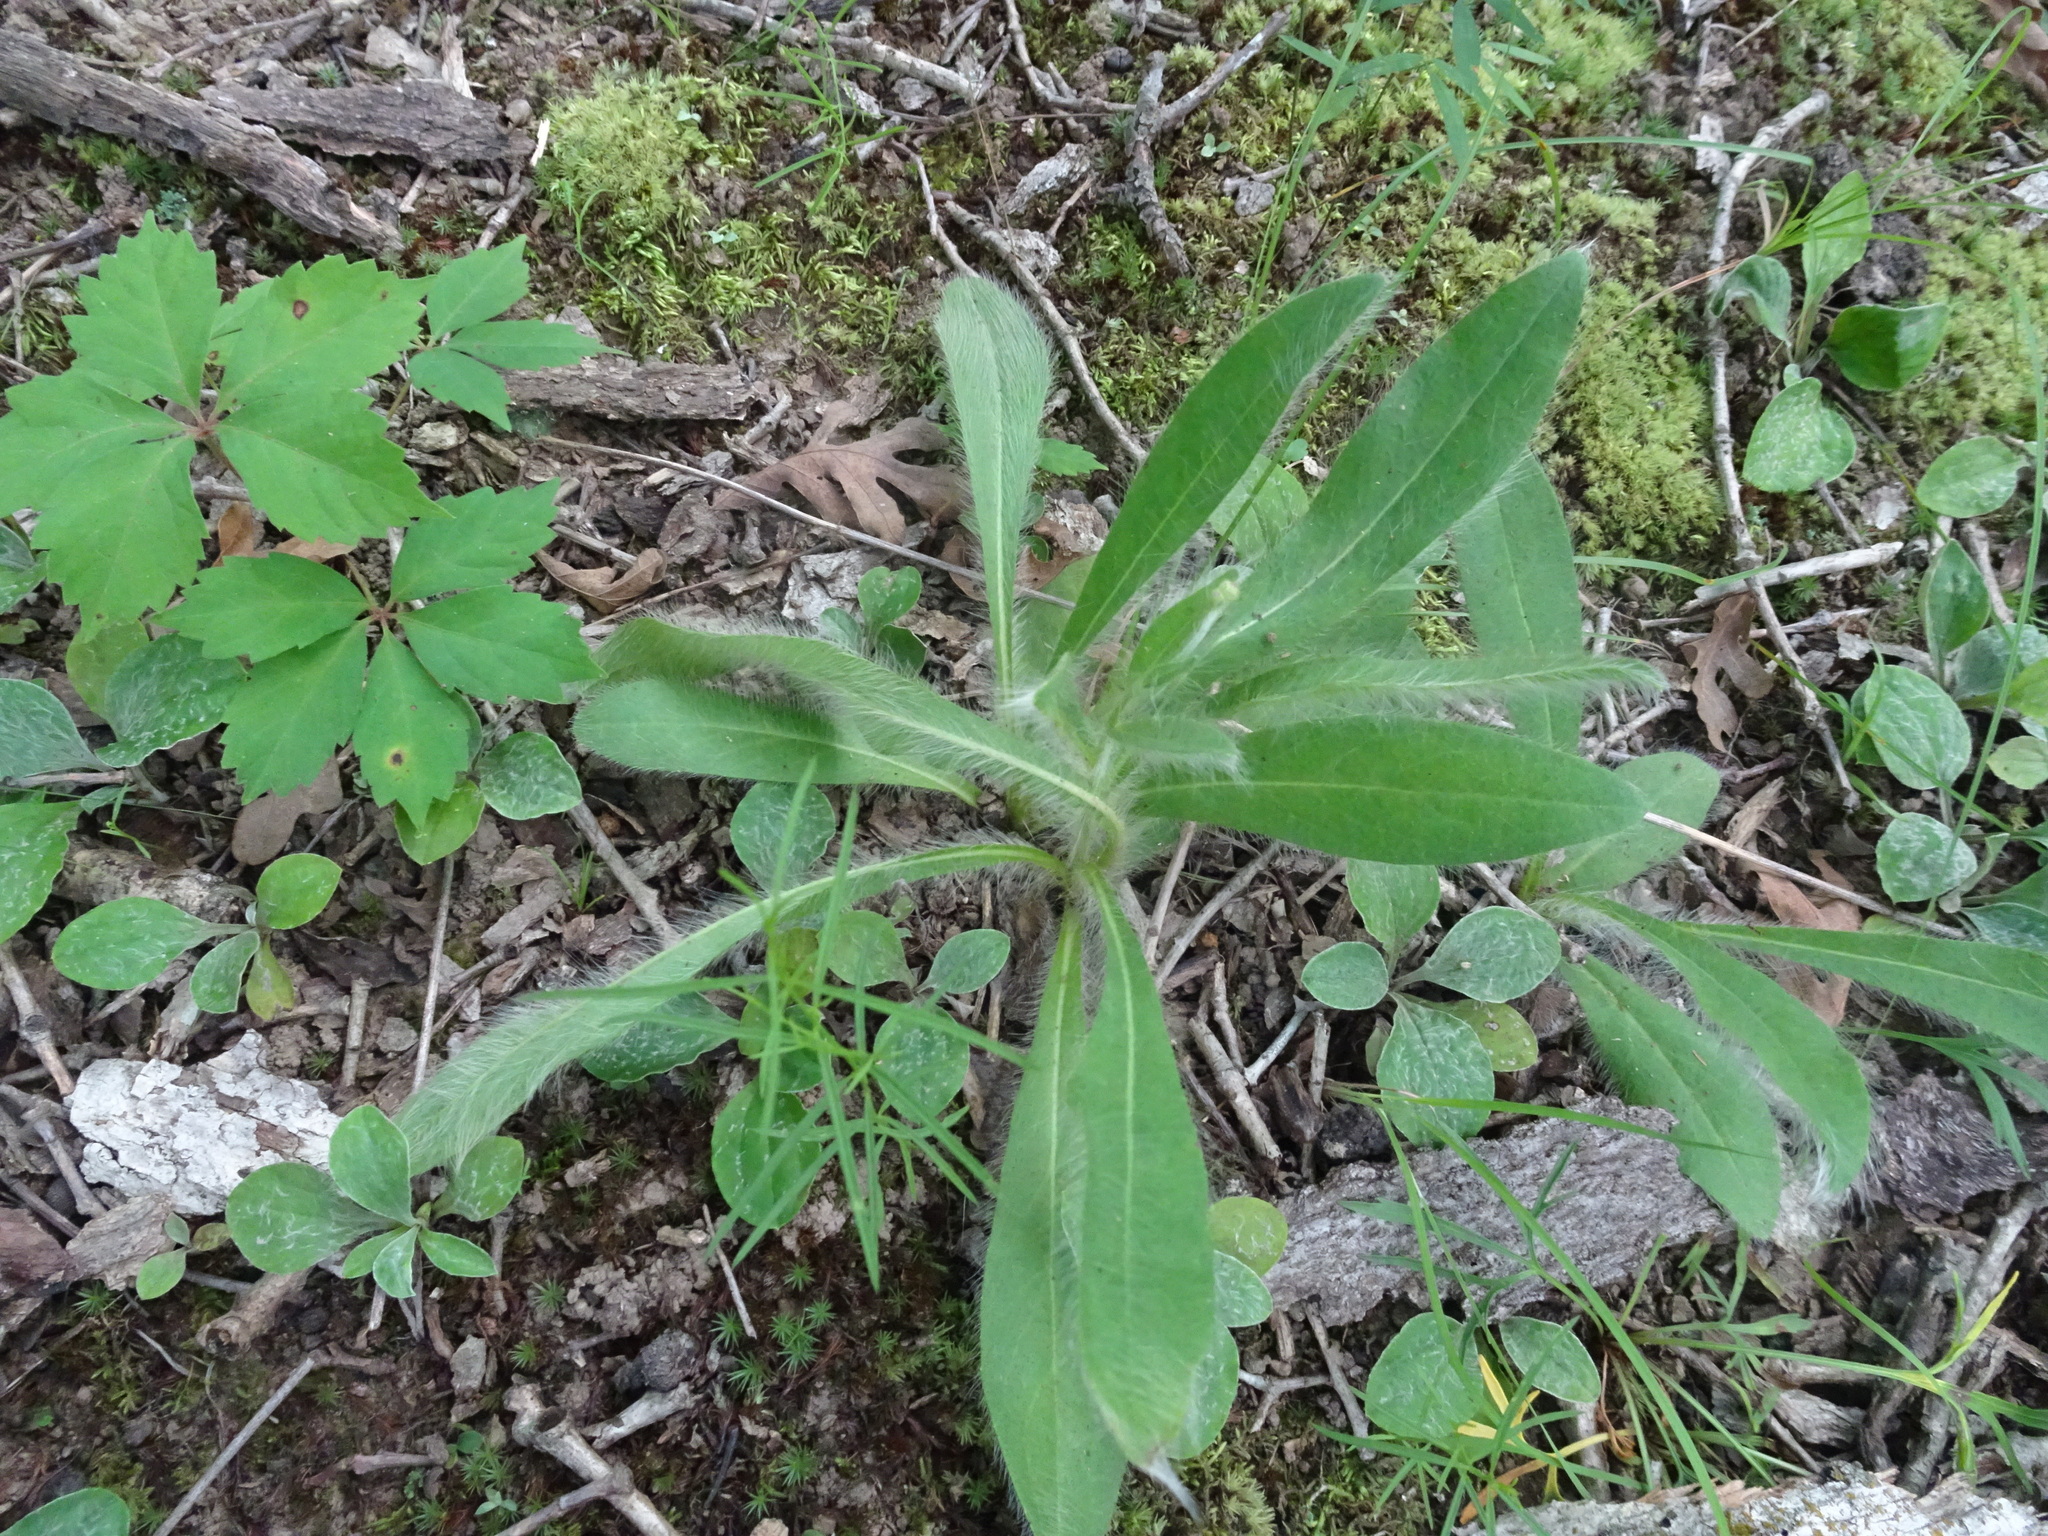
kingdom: Plantae
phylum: Tracheophyta
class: Magnoliopsida
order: Asterales
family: Asteraceae
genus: Hieracium
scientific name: Hieracium longipilum
